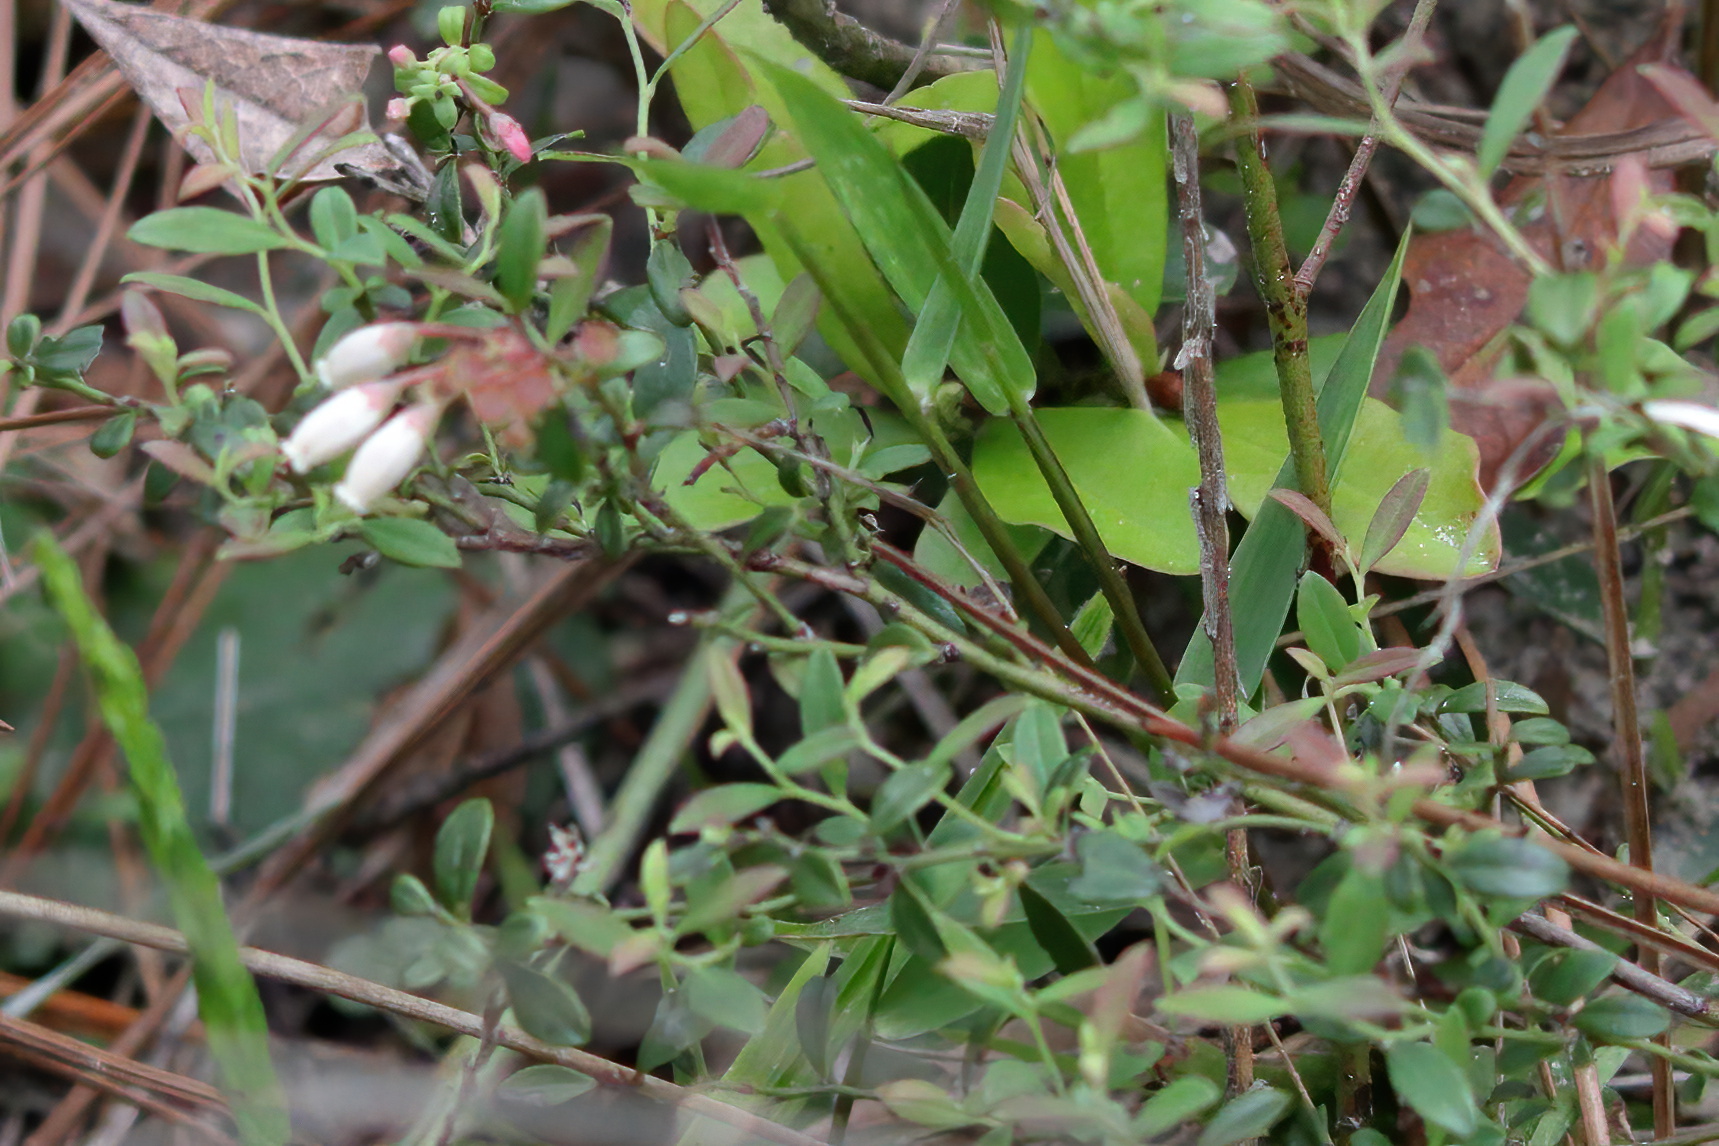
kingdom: Plantae
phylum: Tracheophyta
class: Magnoliopsida
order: Ericales
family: Ericaceae
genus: Vaccinium
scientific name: Vaccinium darrowii
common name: Darrow's blueberry
